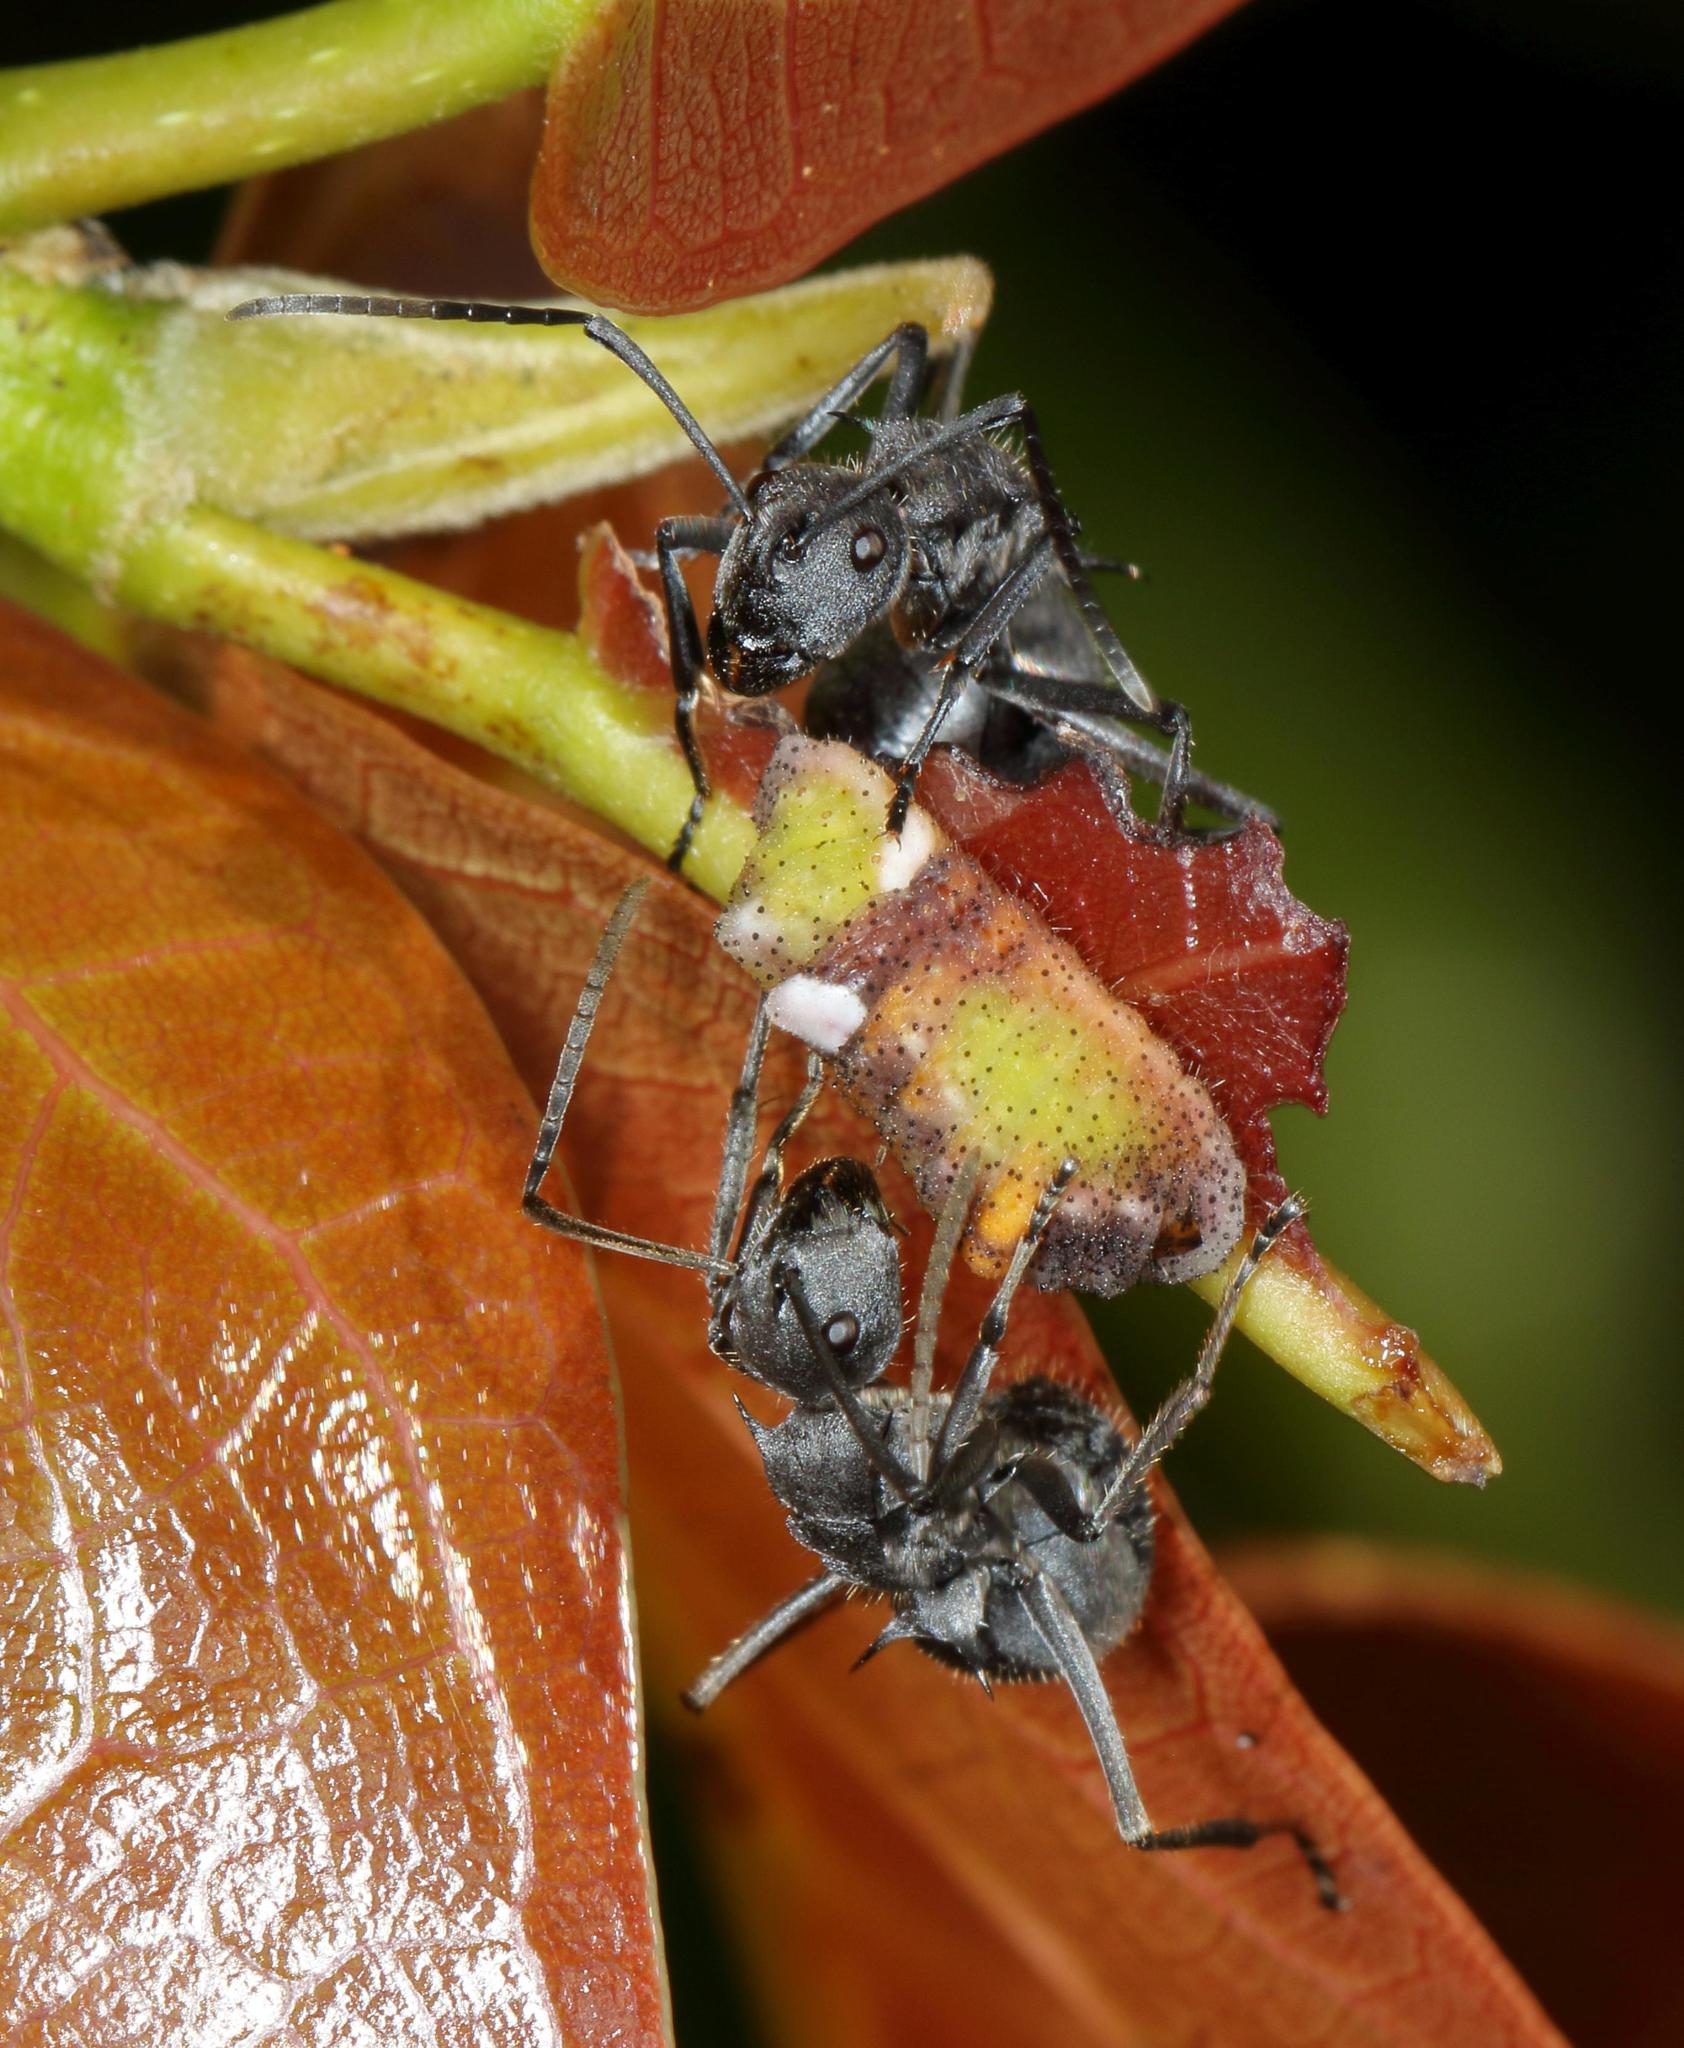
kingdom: Animalia
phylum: Arthropoda
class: Insecta
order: Lepidoptera
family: Lycaenidae
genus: Myrina
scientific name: Myrina silenus
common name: Amber fig-tree blue
